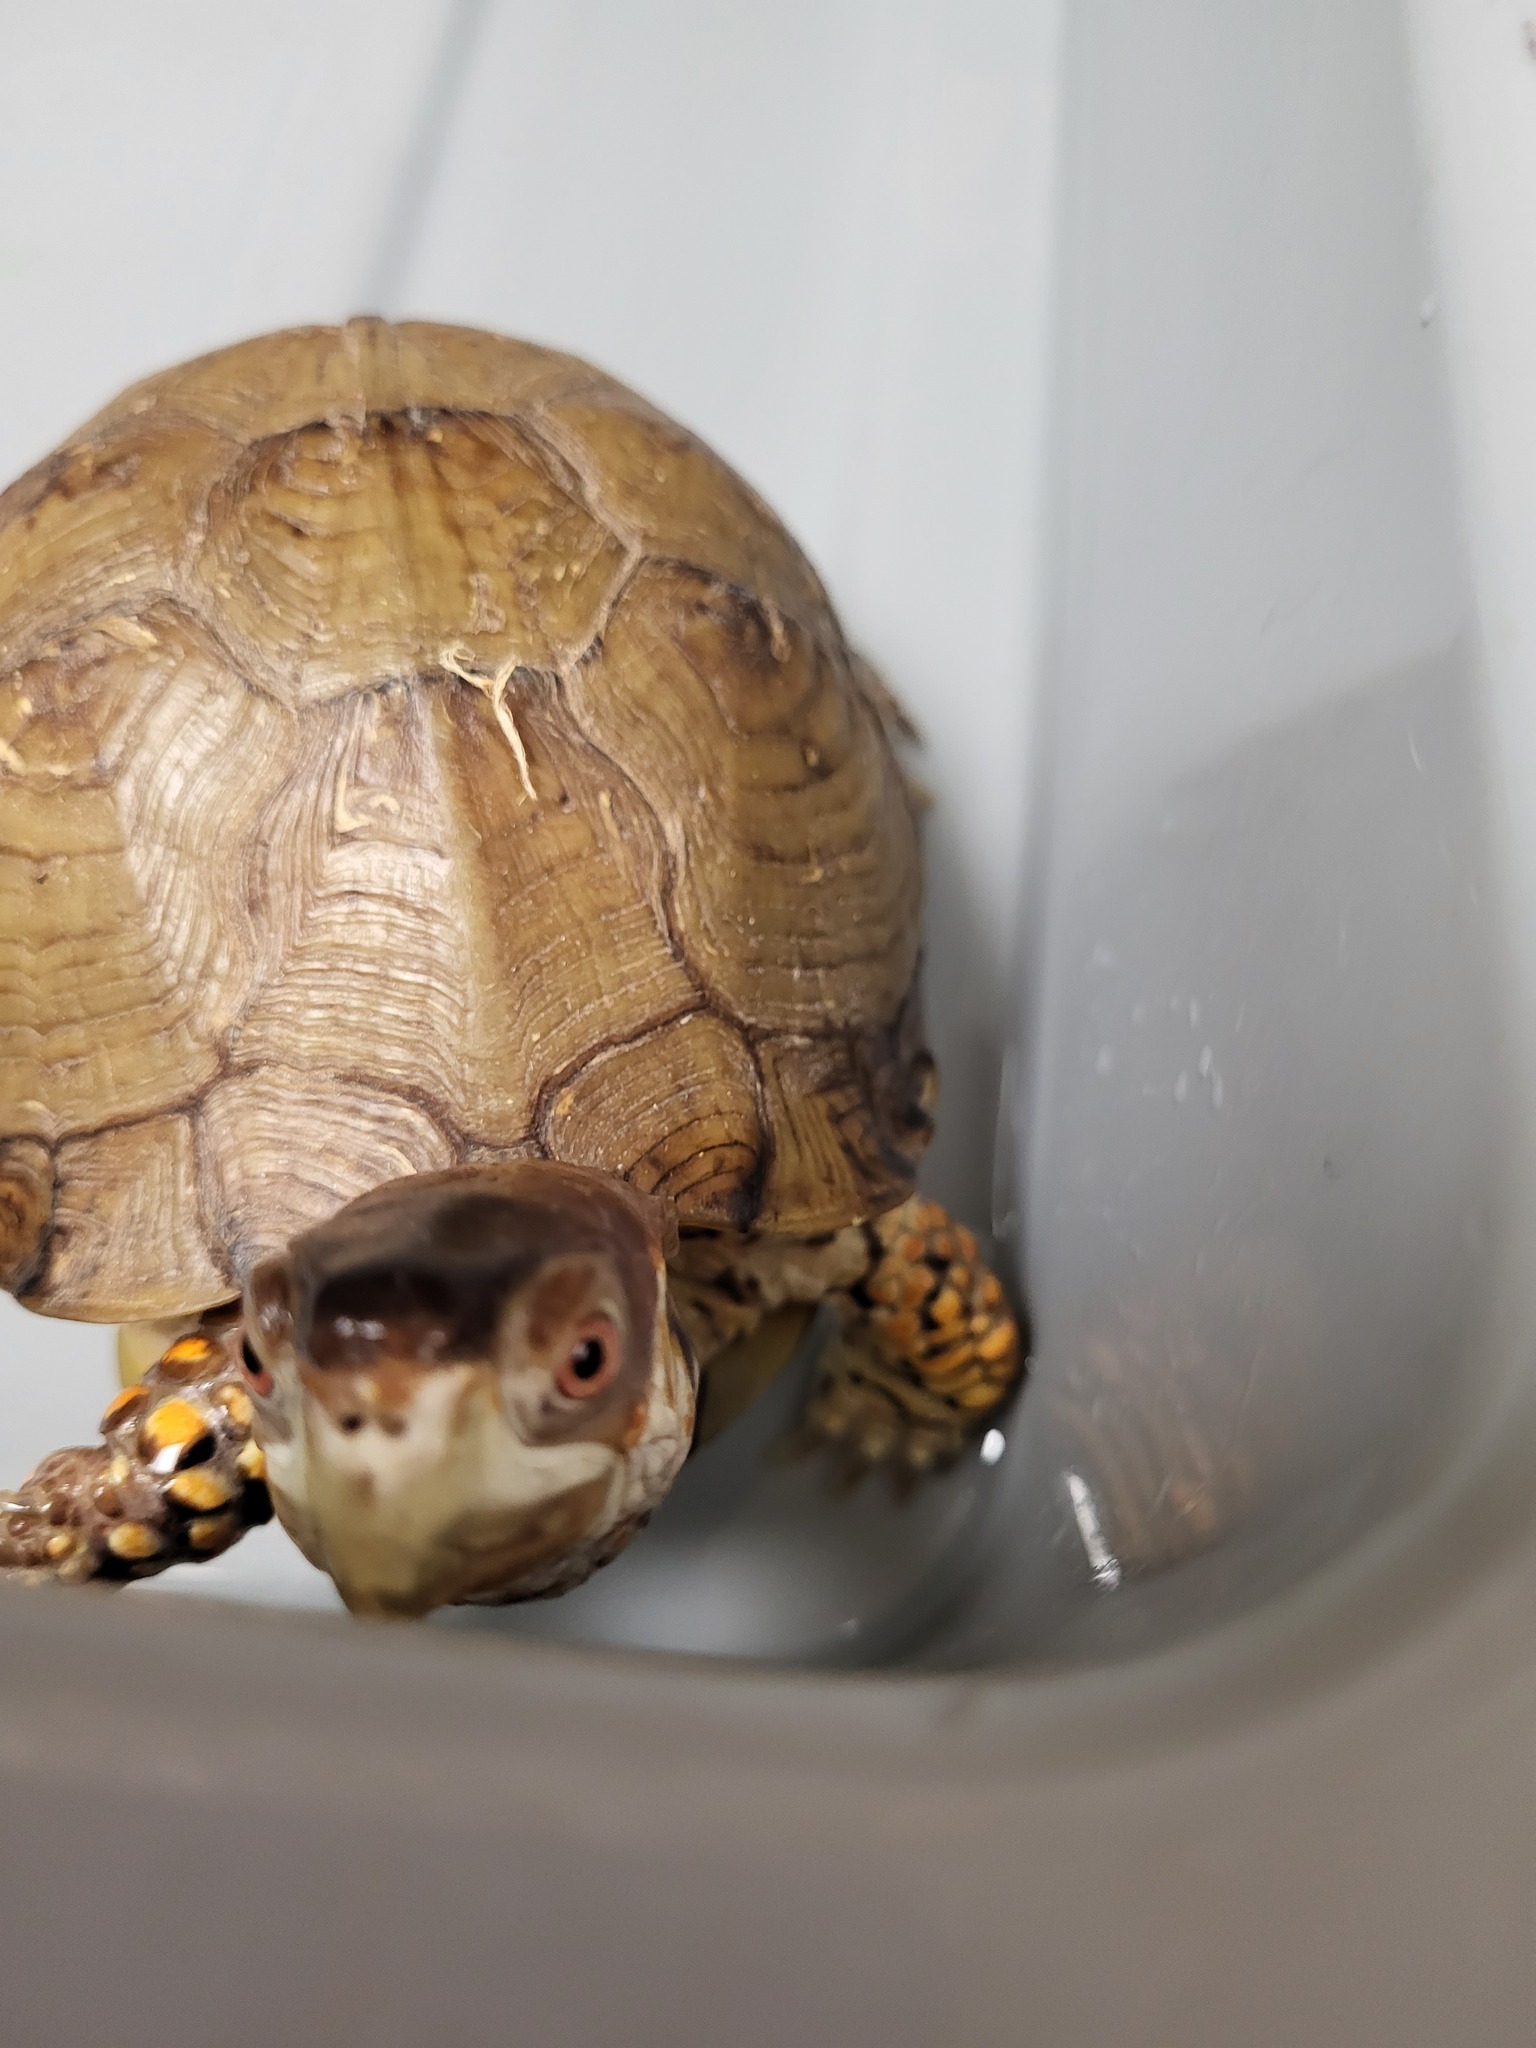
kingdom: Animalia
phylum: Chordata
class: Testudines
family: Emydidae
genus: Terrapene
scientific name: Terrapene carolina
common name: Common box turtle
